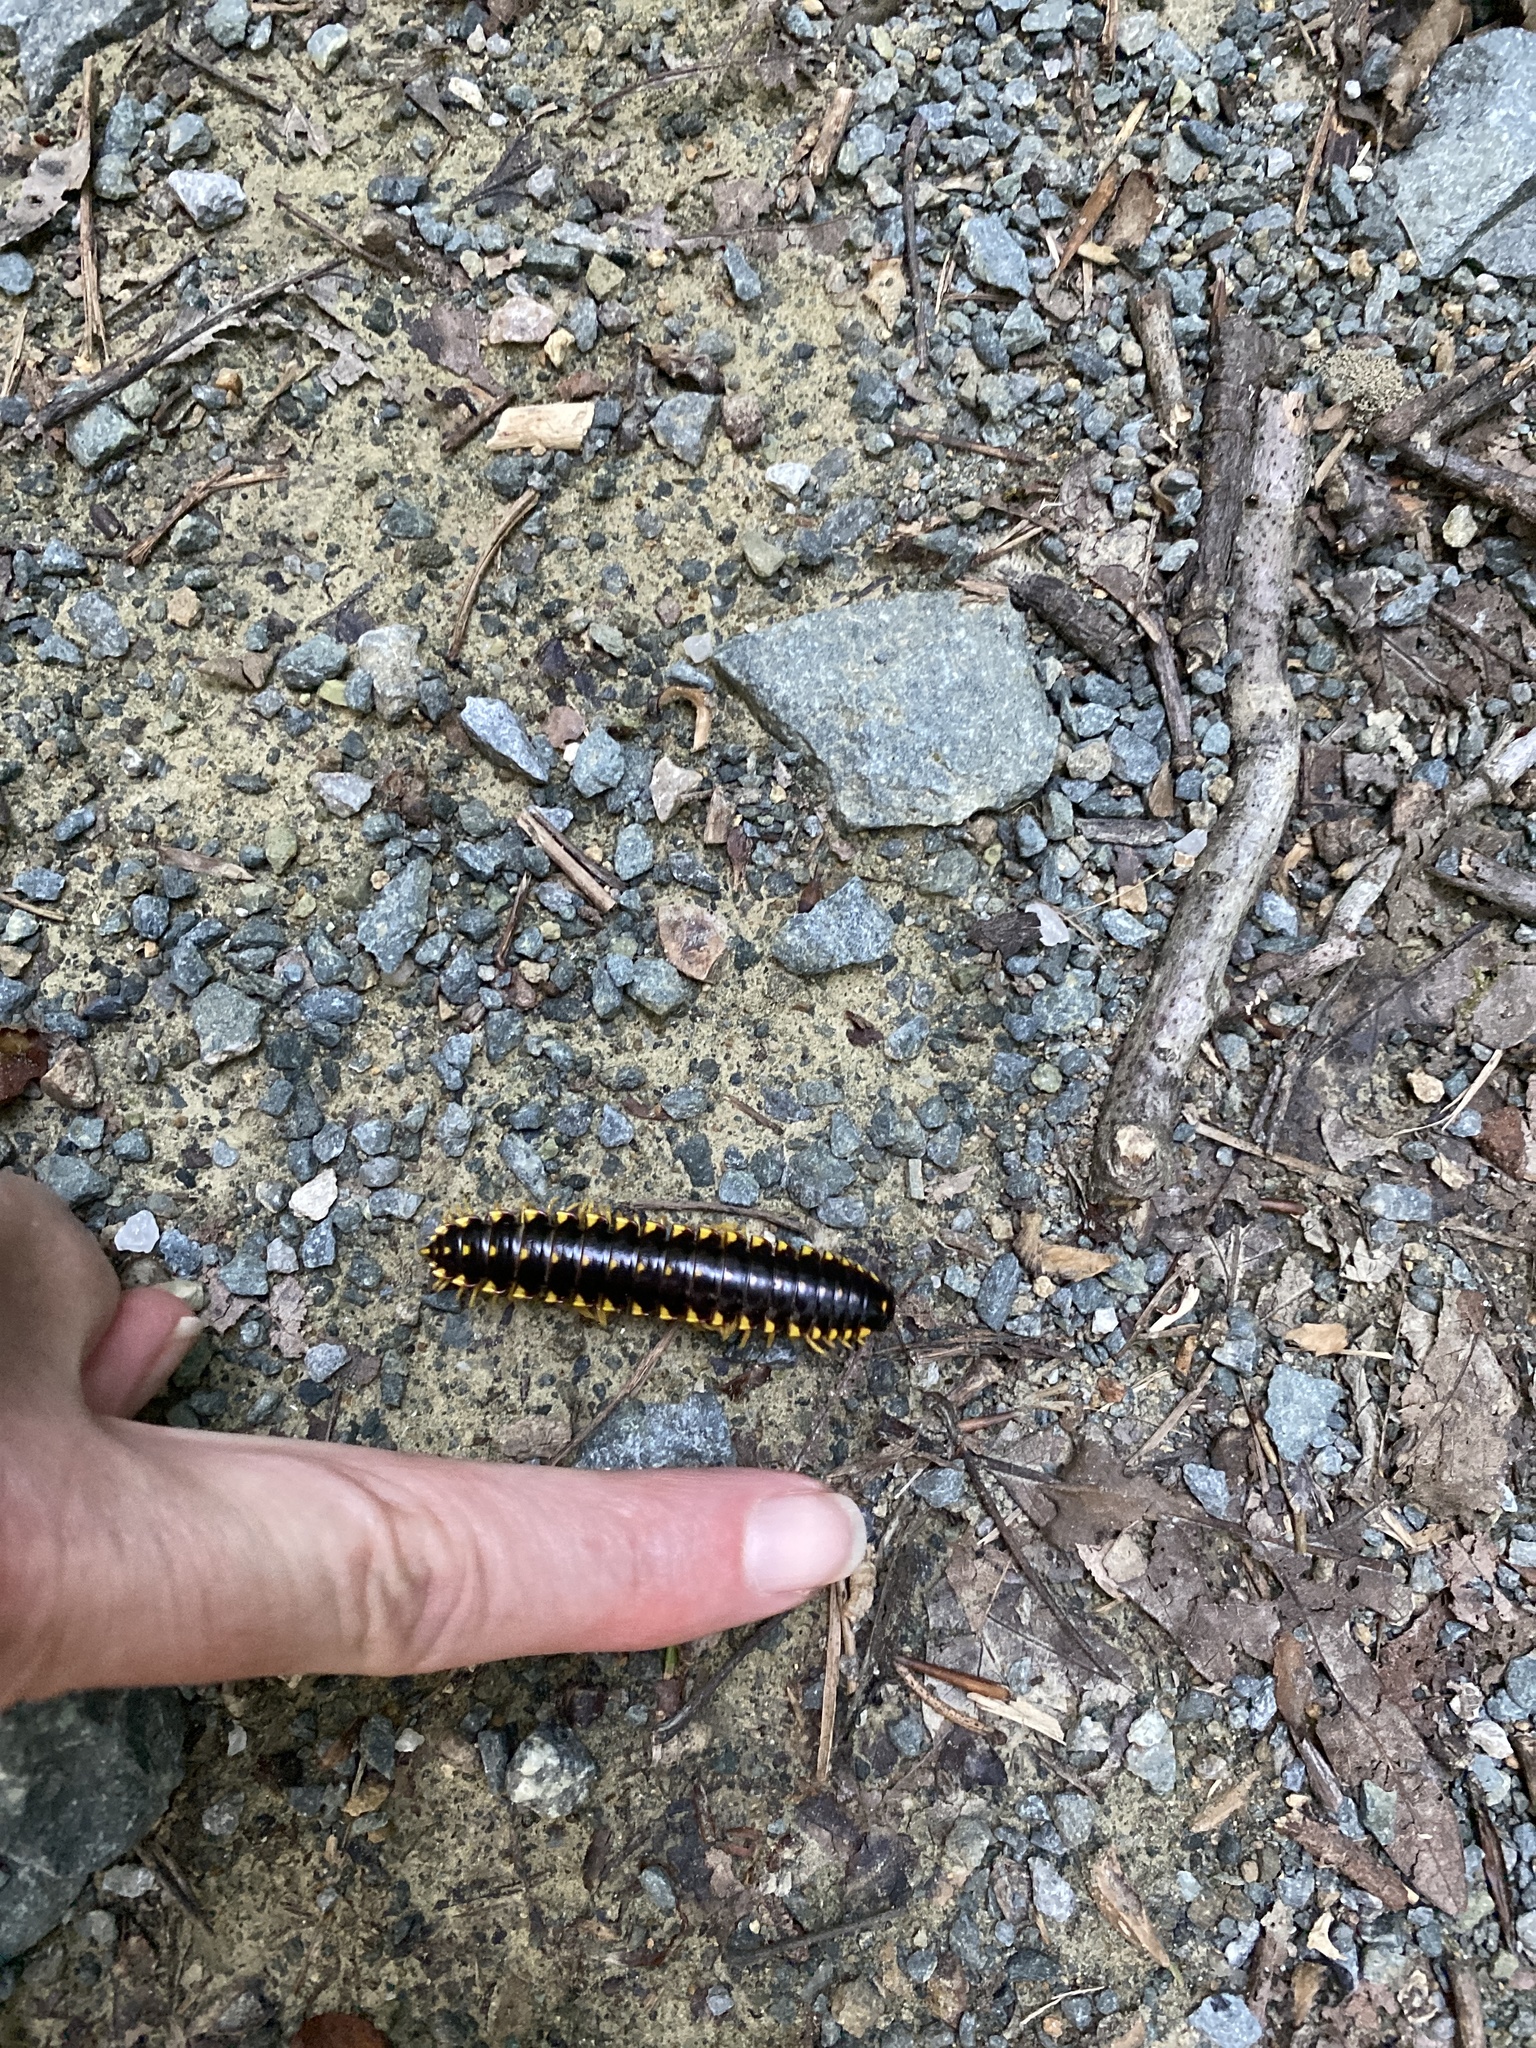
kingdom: Animalia
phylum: Arthropoda
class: Diplopoda
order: Polydesmida
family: Xystodesmidae
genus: Apheloria
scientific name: Apheloria tigana
